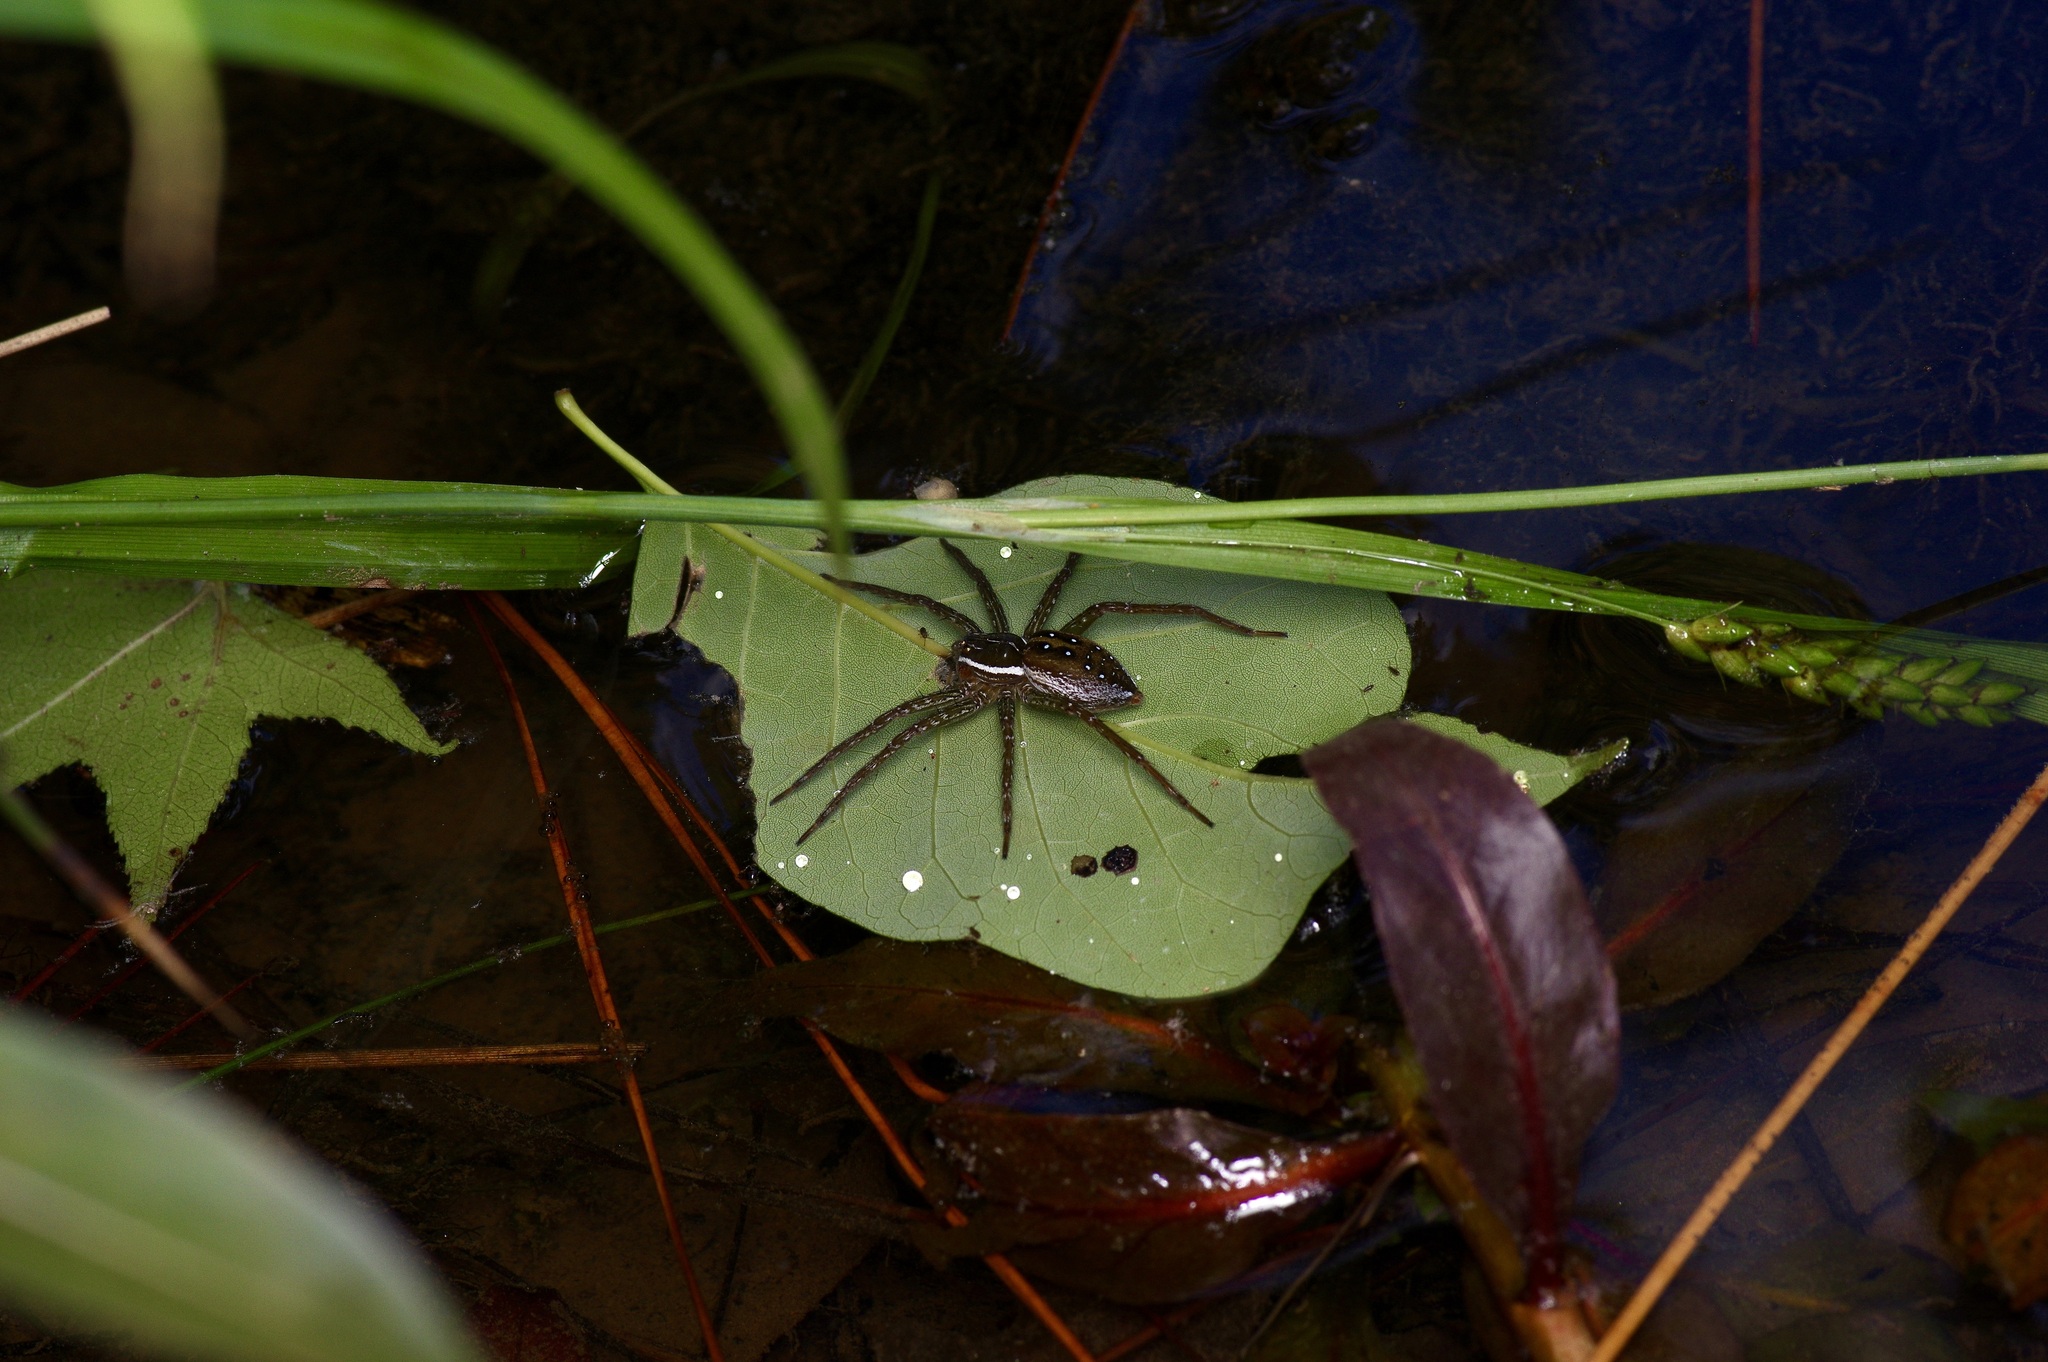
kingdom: Animalia
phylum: Arthropoda
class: Arachnida
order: Araneae
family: Pisauridae
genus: Dolomedes
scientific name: Dolomedes triton
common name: Six-spotted fishing spider
